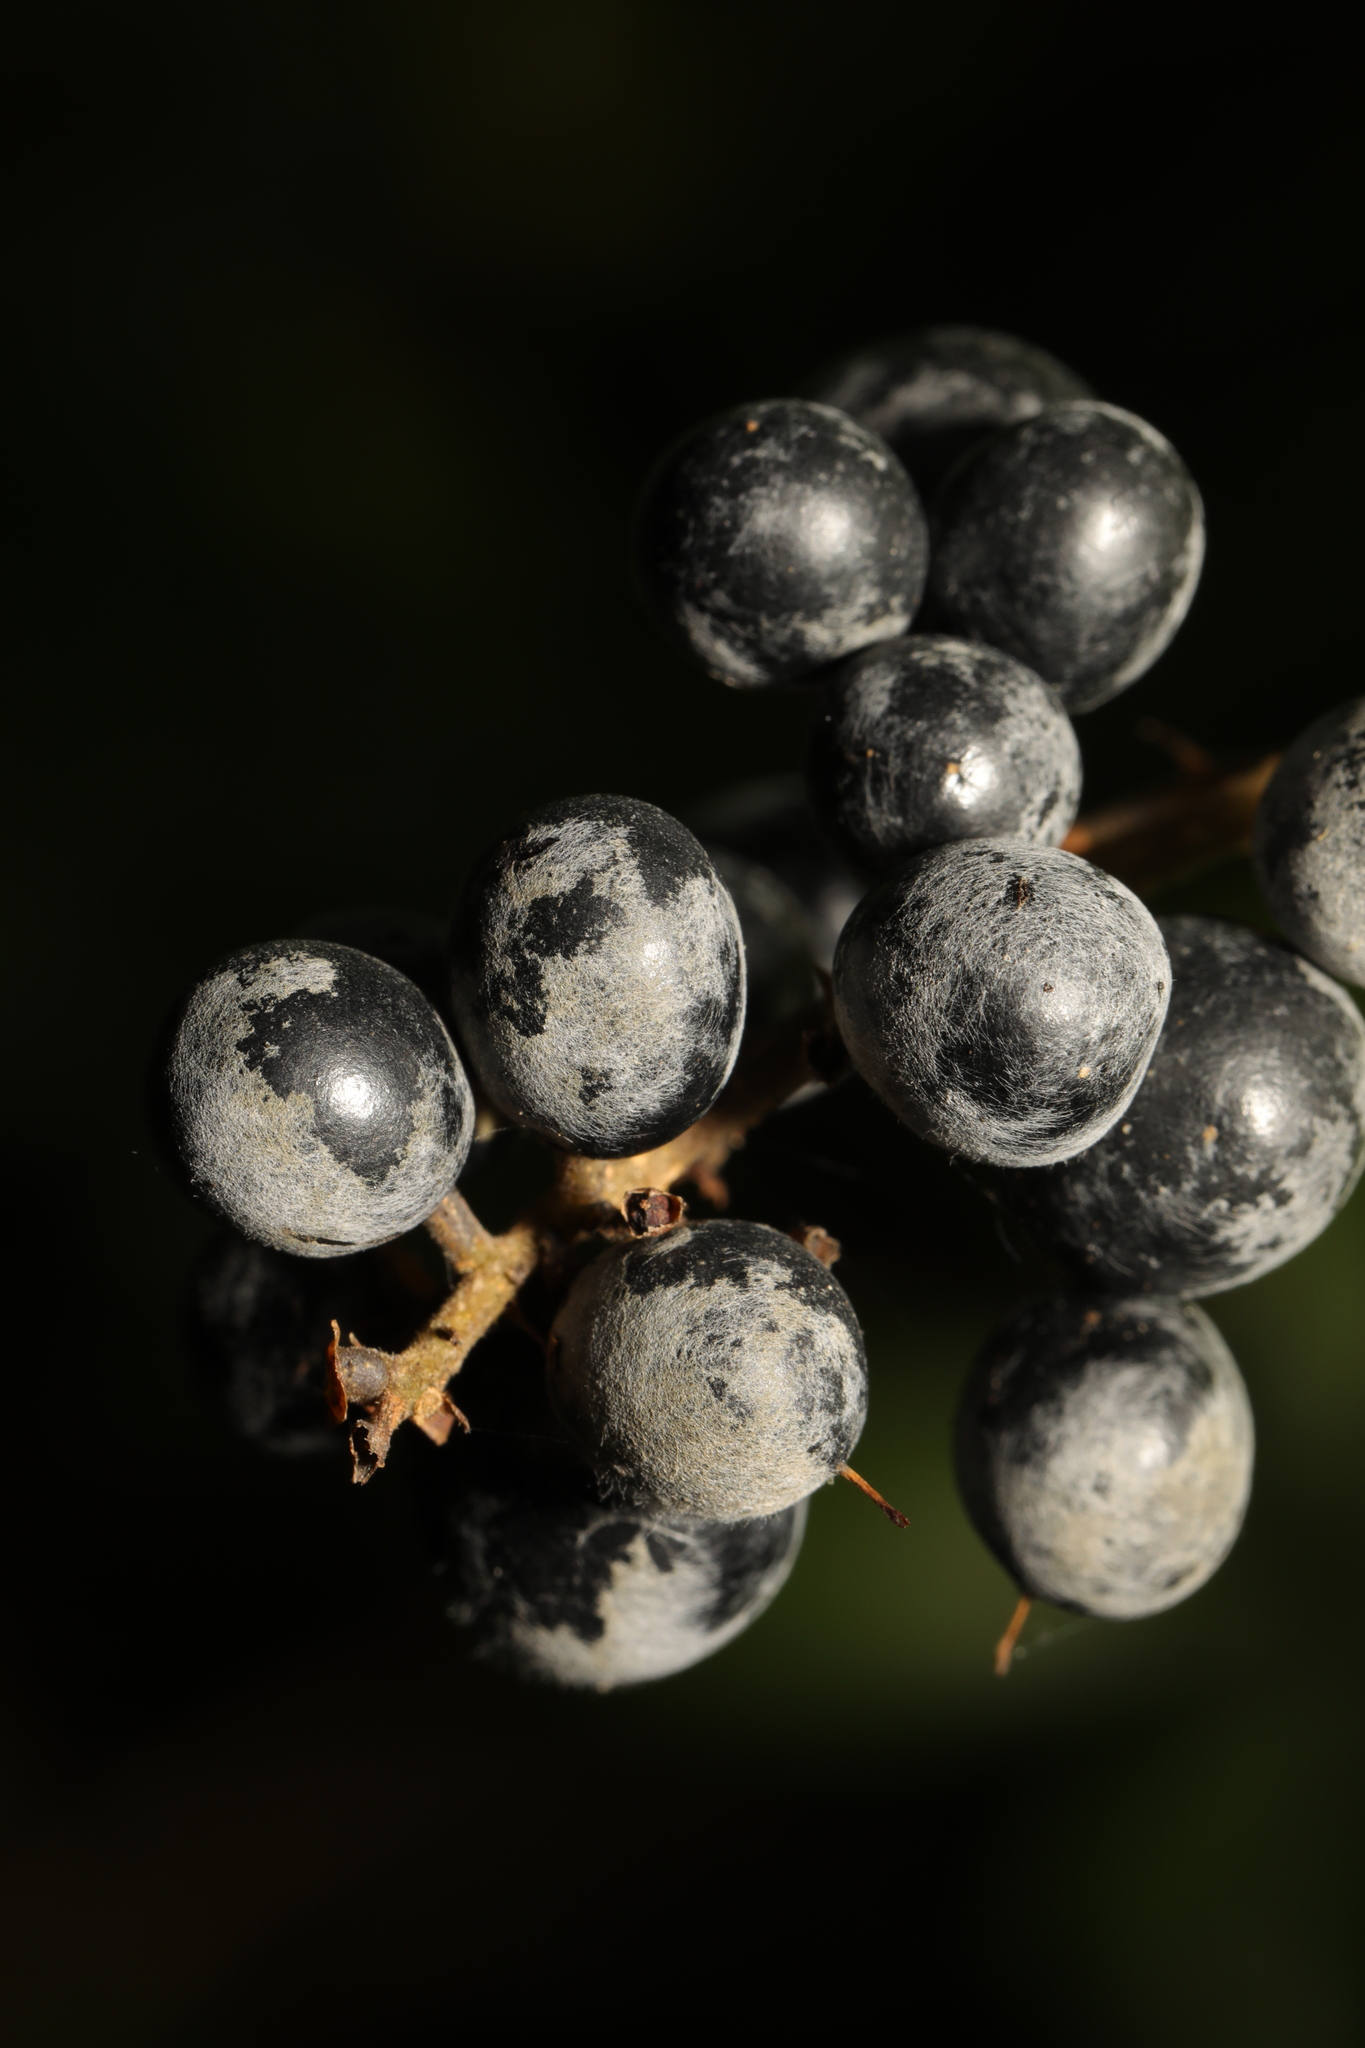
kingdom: Fungi
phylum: Ascomycota
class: Leotiomycetes
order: Helotiales
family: Sclerotiniaceae
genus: Botrytis
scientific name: Botrytis cinerea
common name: Grey mould
